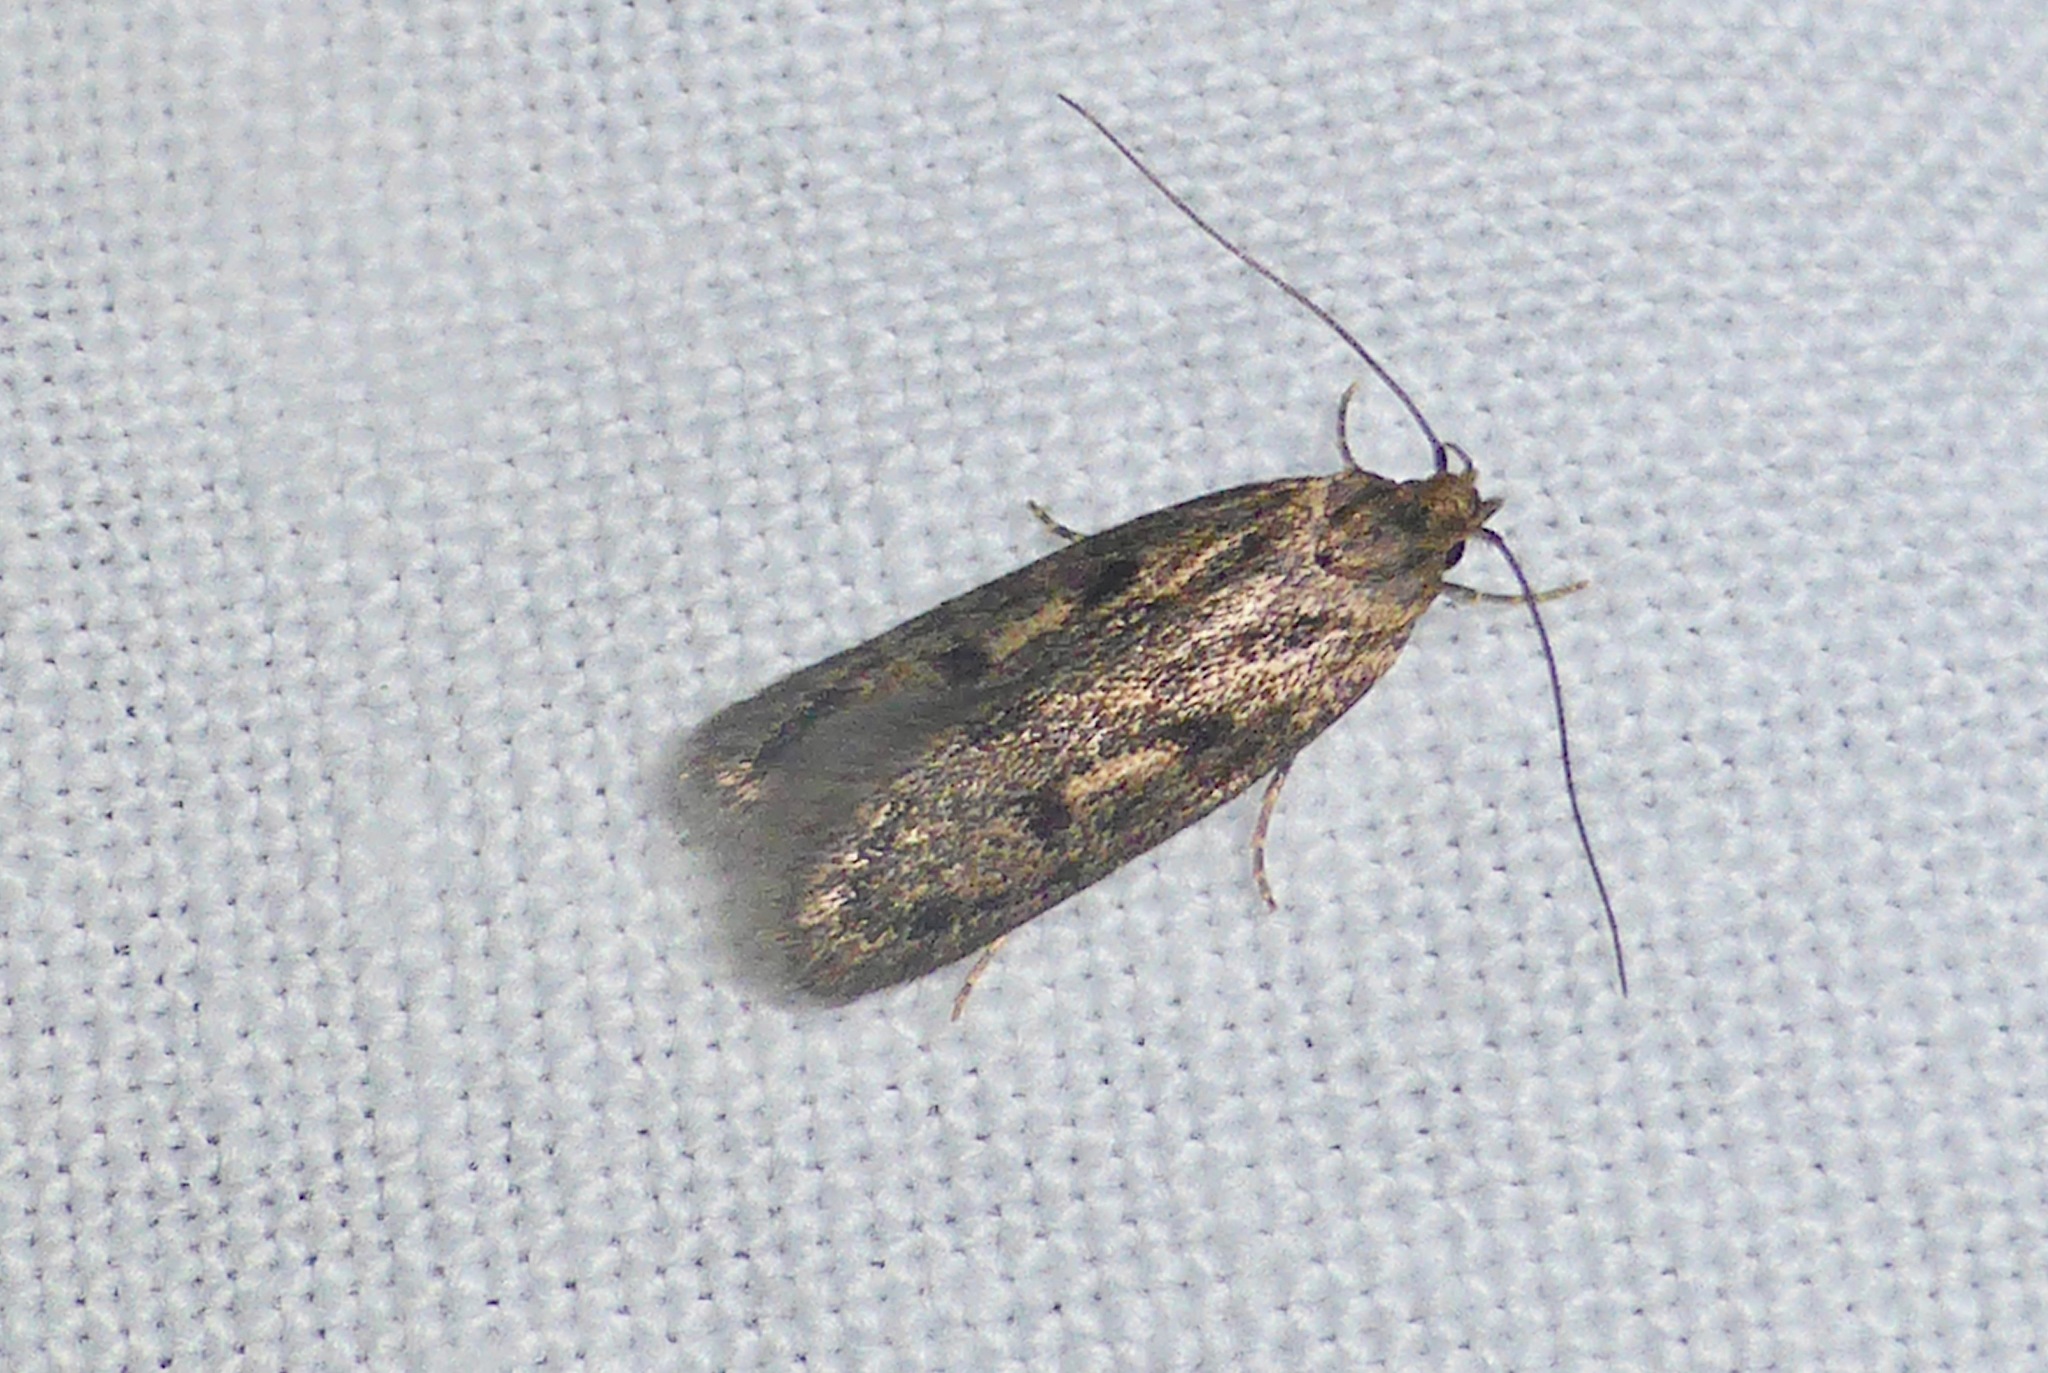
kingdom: Animalia
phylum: Arthropoda
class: Insecta
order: Lepidoptera
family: Oecophoridae
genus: Hofmannophila
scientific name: Hofmannophila pseudospretella
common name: Brown house moth
